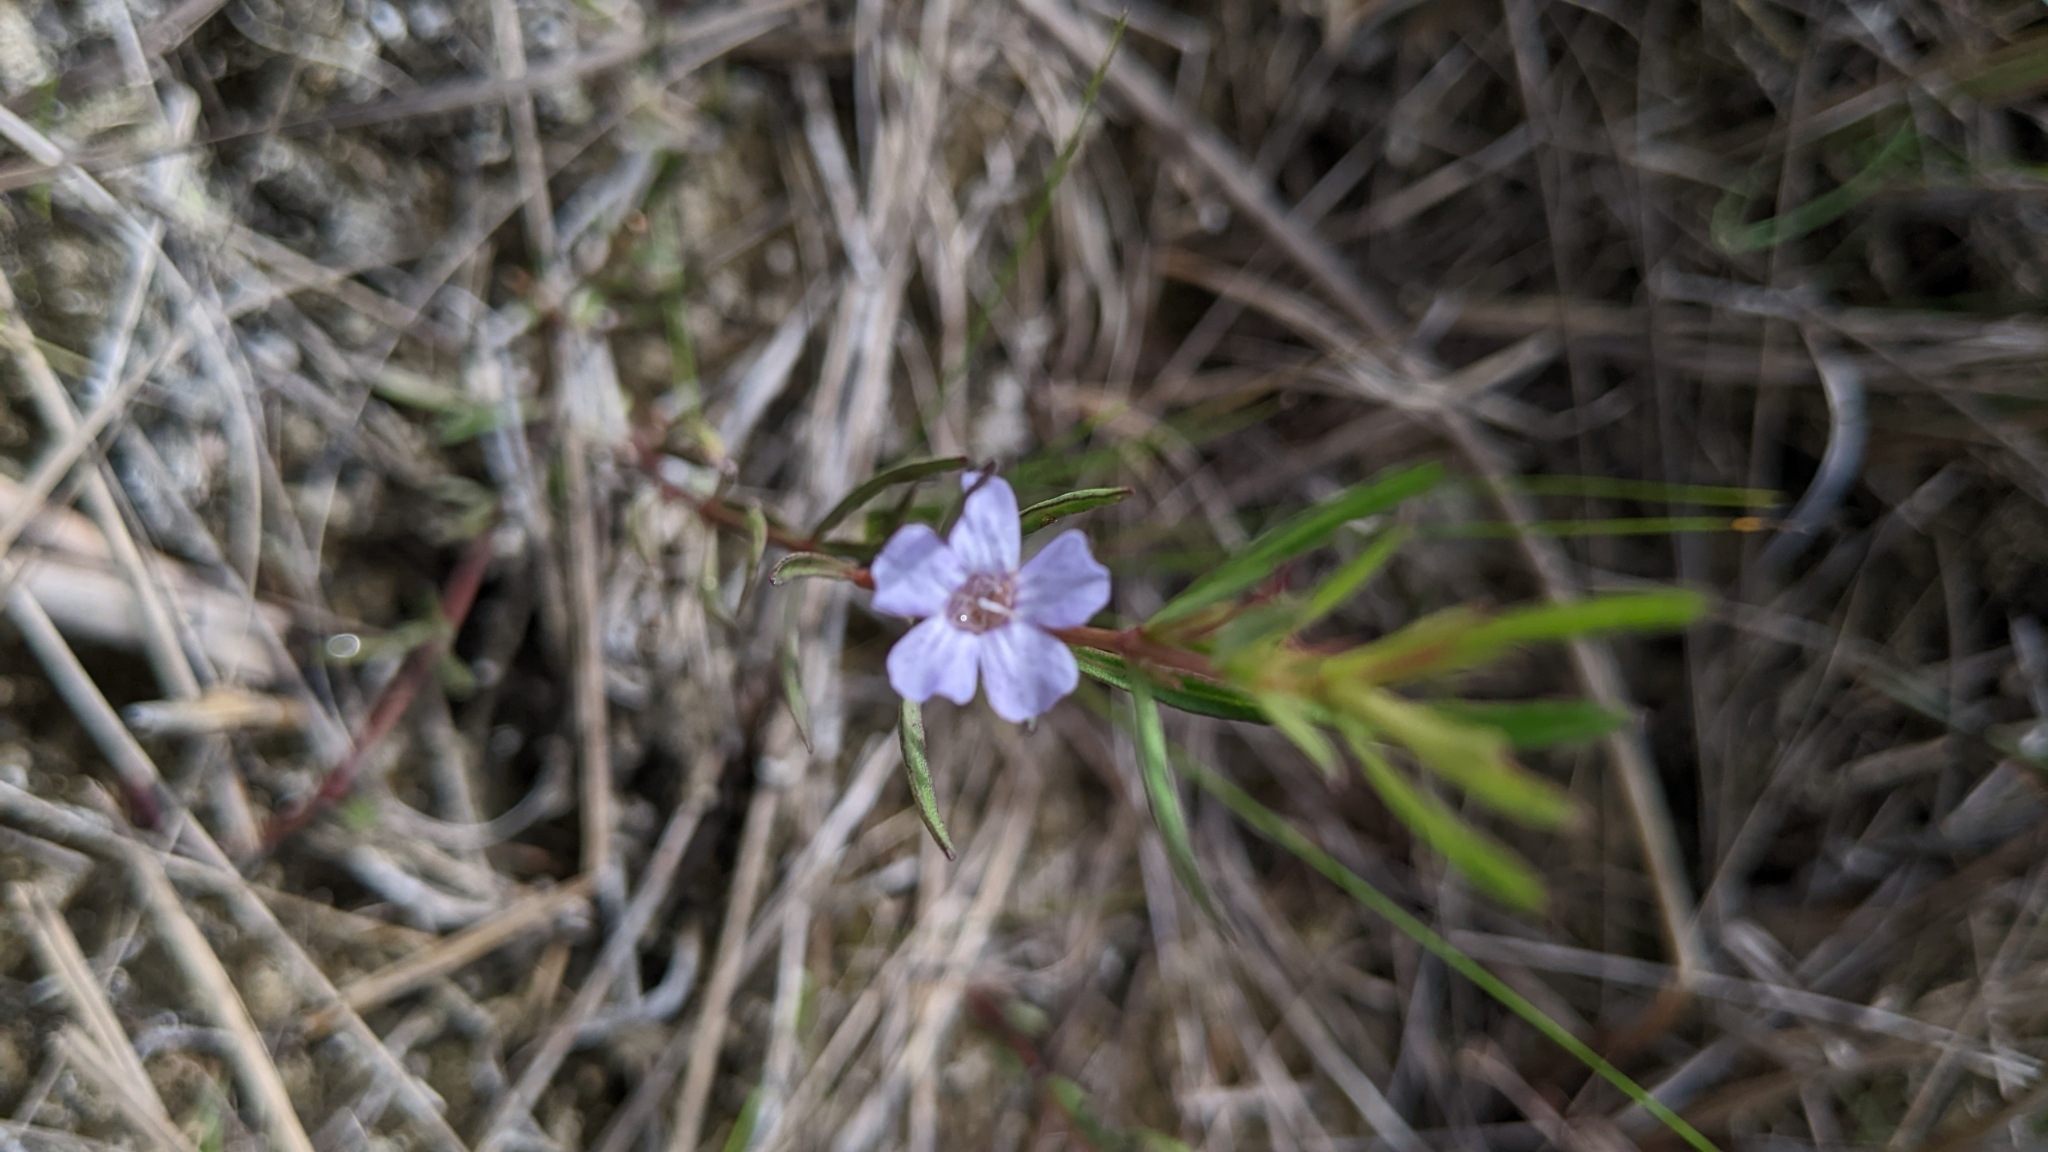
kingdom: Plantae
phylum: Tracheophyta
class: Magnoliopsida
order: Lamiales
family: Acanthaceae
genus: Dyschoriste
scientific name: Dyschoriste angusta
